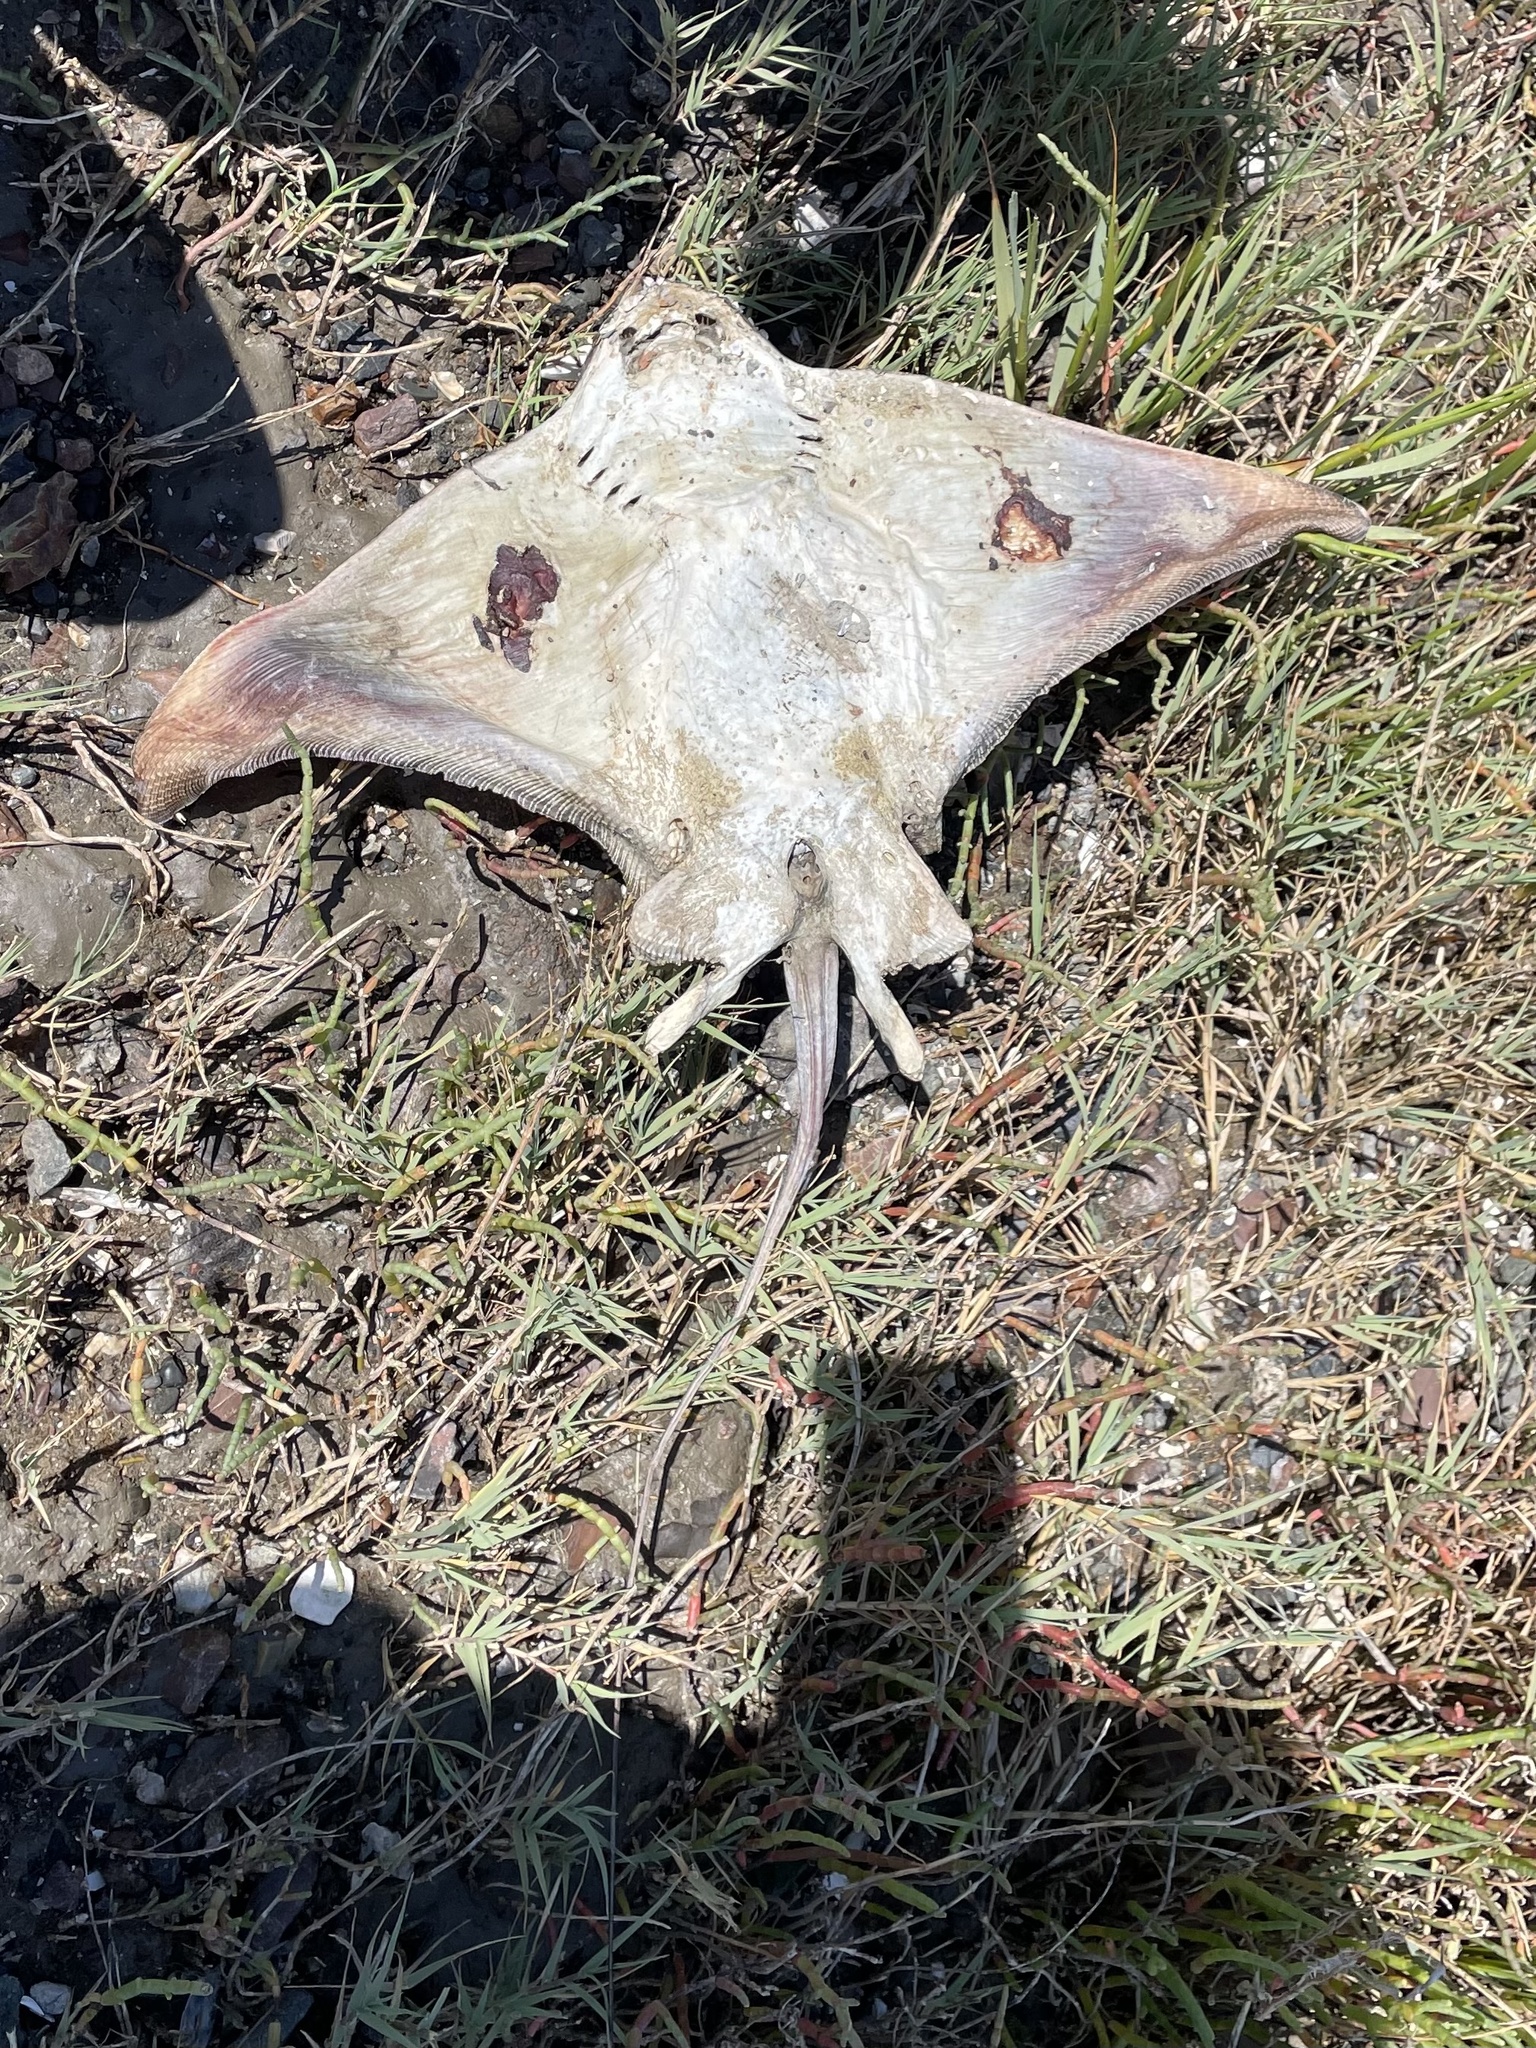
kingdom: Animalia
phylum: Chordata
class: Elasmobranchii
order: Myliobatiformes
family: Myliobatidae
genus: Myliobatis
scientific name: Myliobatis californica
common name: Bat ray
